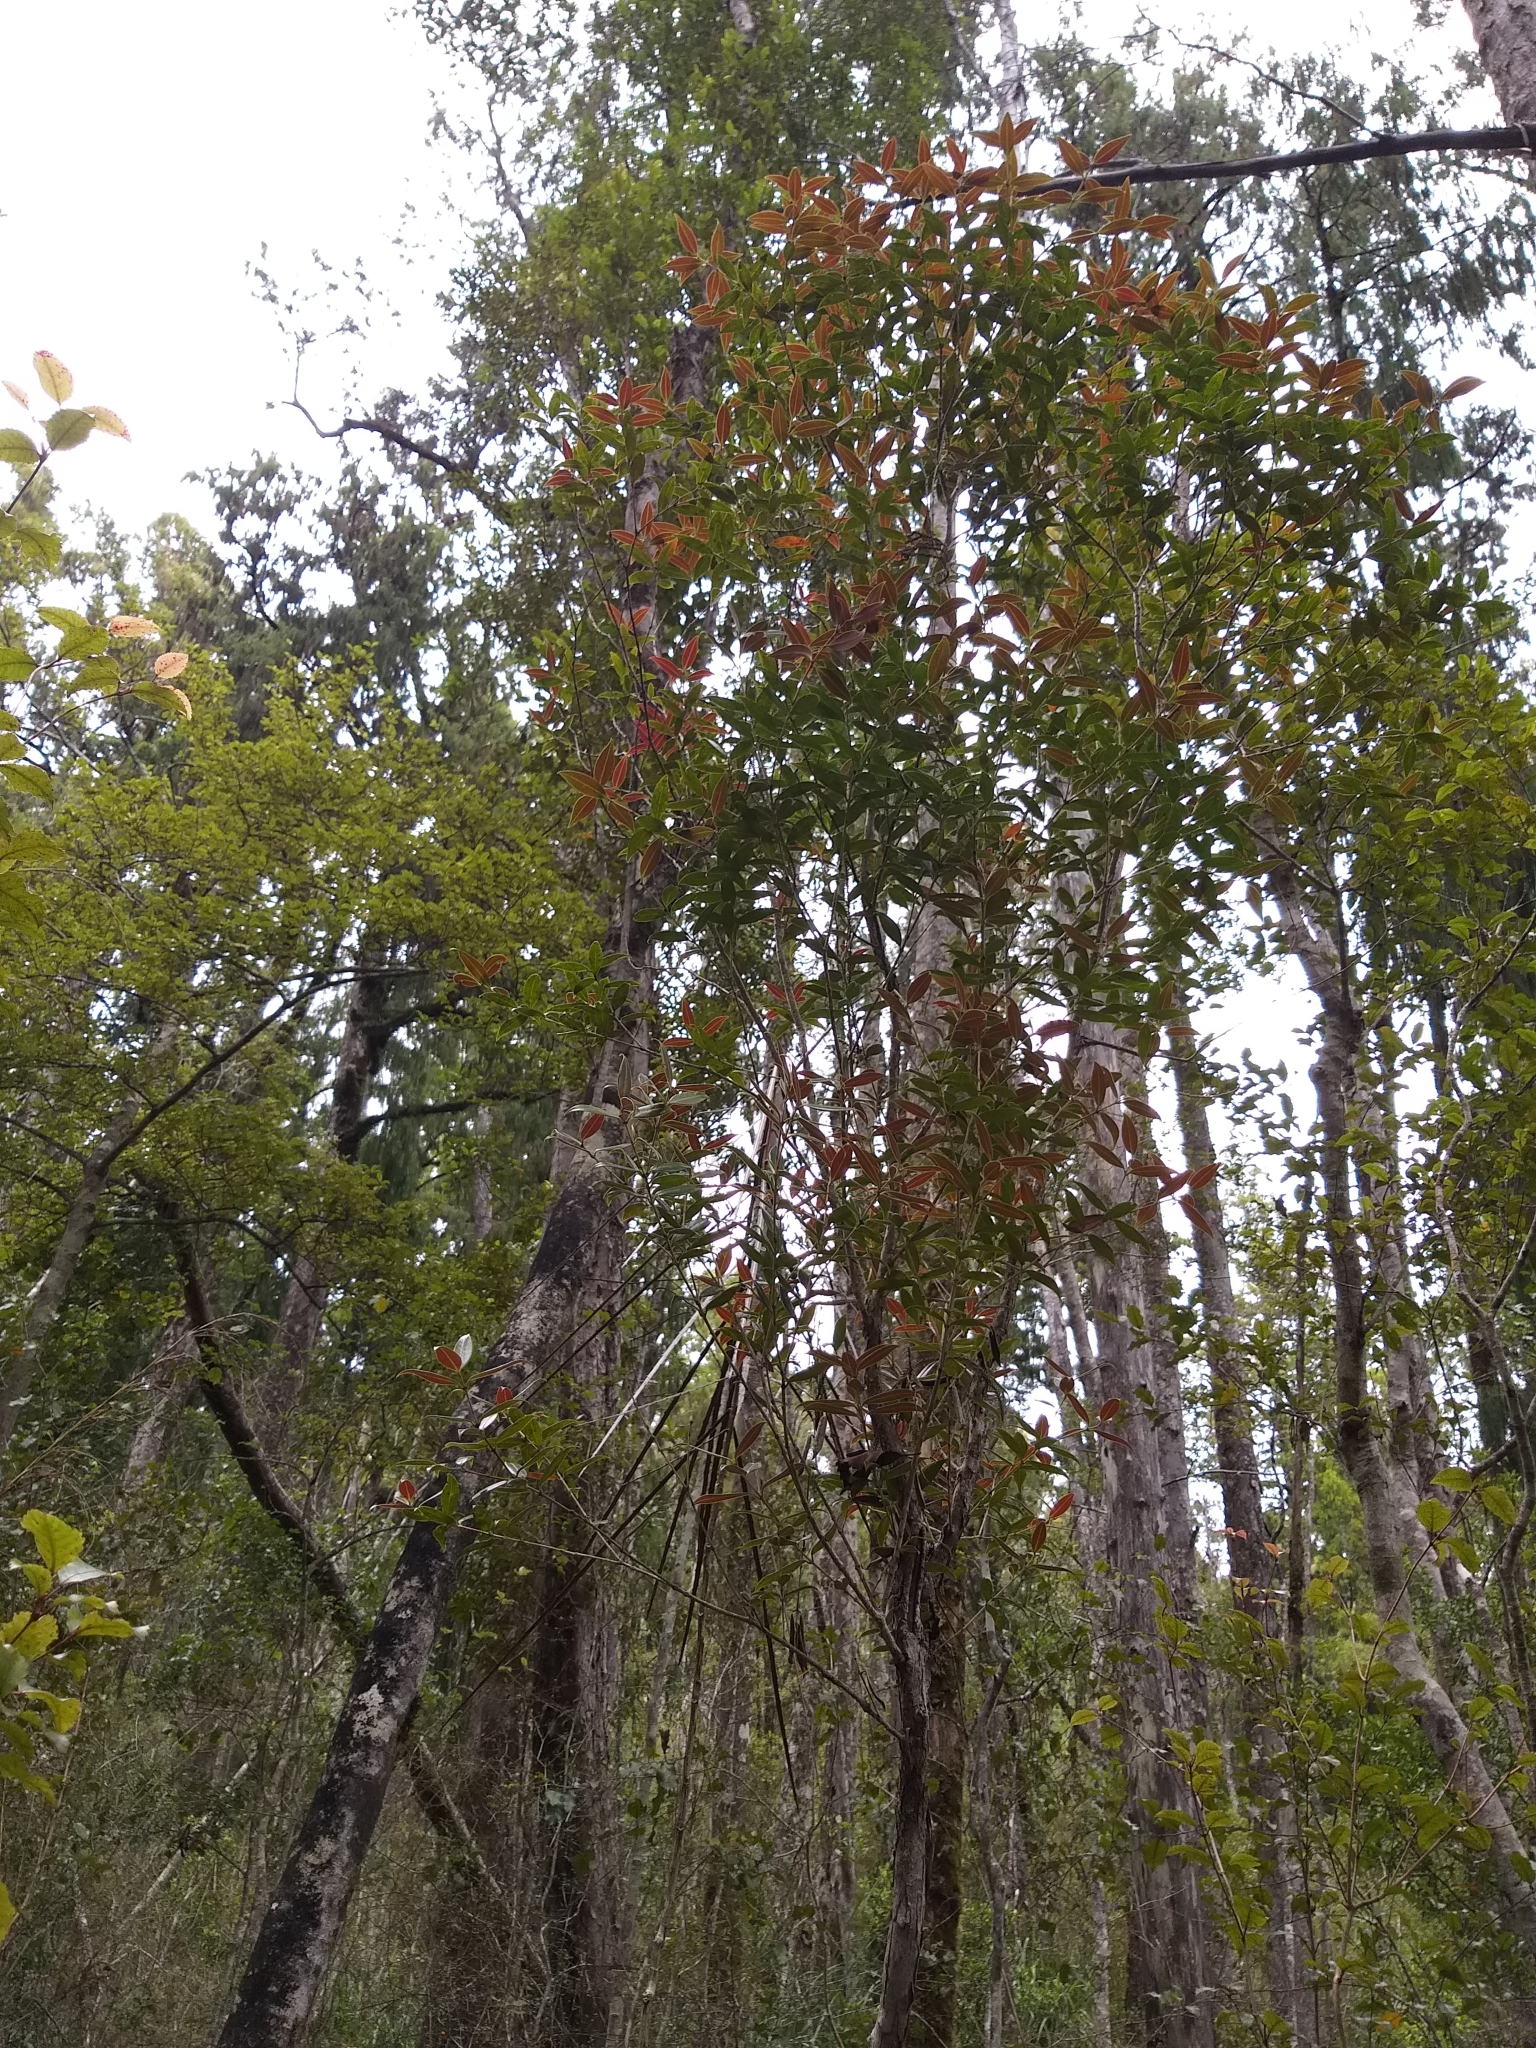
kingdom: Plantae
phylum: Tracheophyta
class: Magnoliopsida
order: Myrtales
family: Myrtaceae
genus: Metrosideros
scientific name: Metrosideros umbellata
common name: Southern rata
